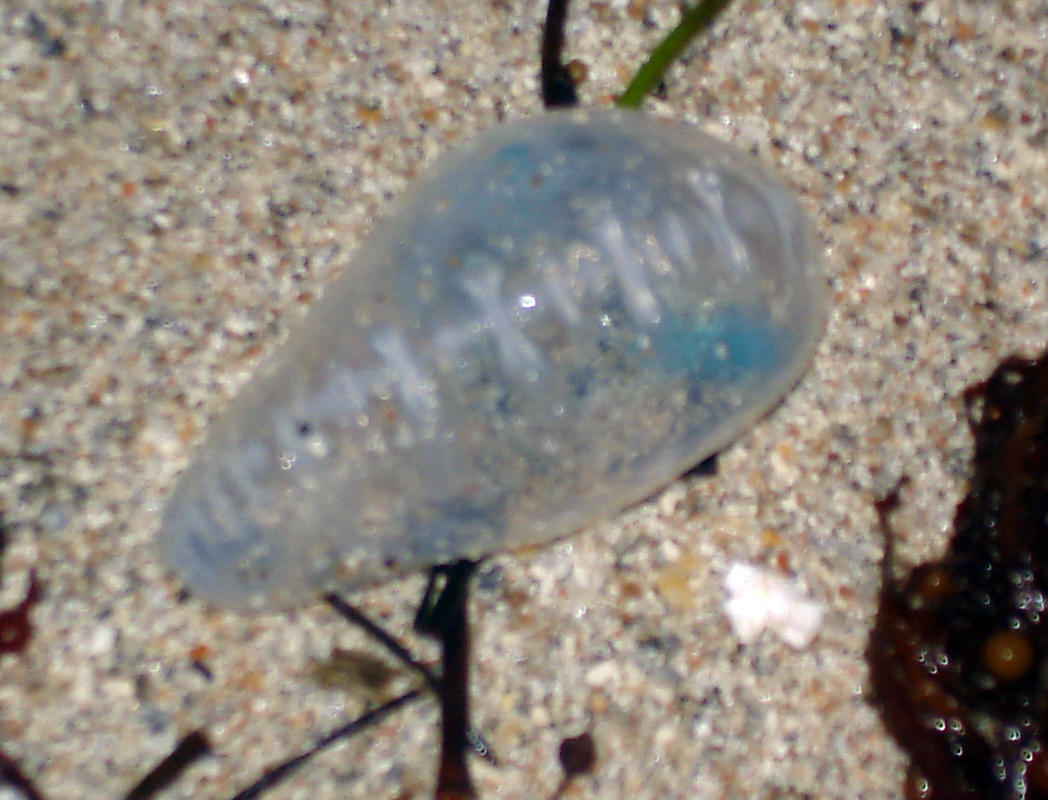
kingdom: Animalia
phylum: Cnidaria
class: Hydrozoa
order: Siphonophorae
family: Physaliidae
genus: Physalia
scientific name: Physalia physalis
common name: Portuguese man-of-war
